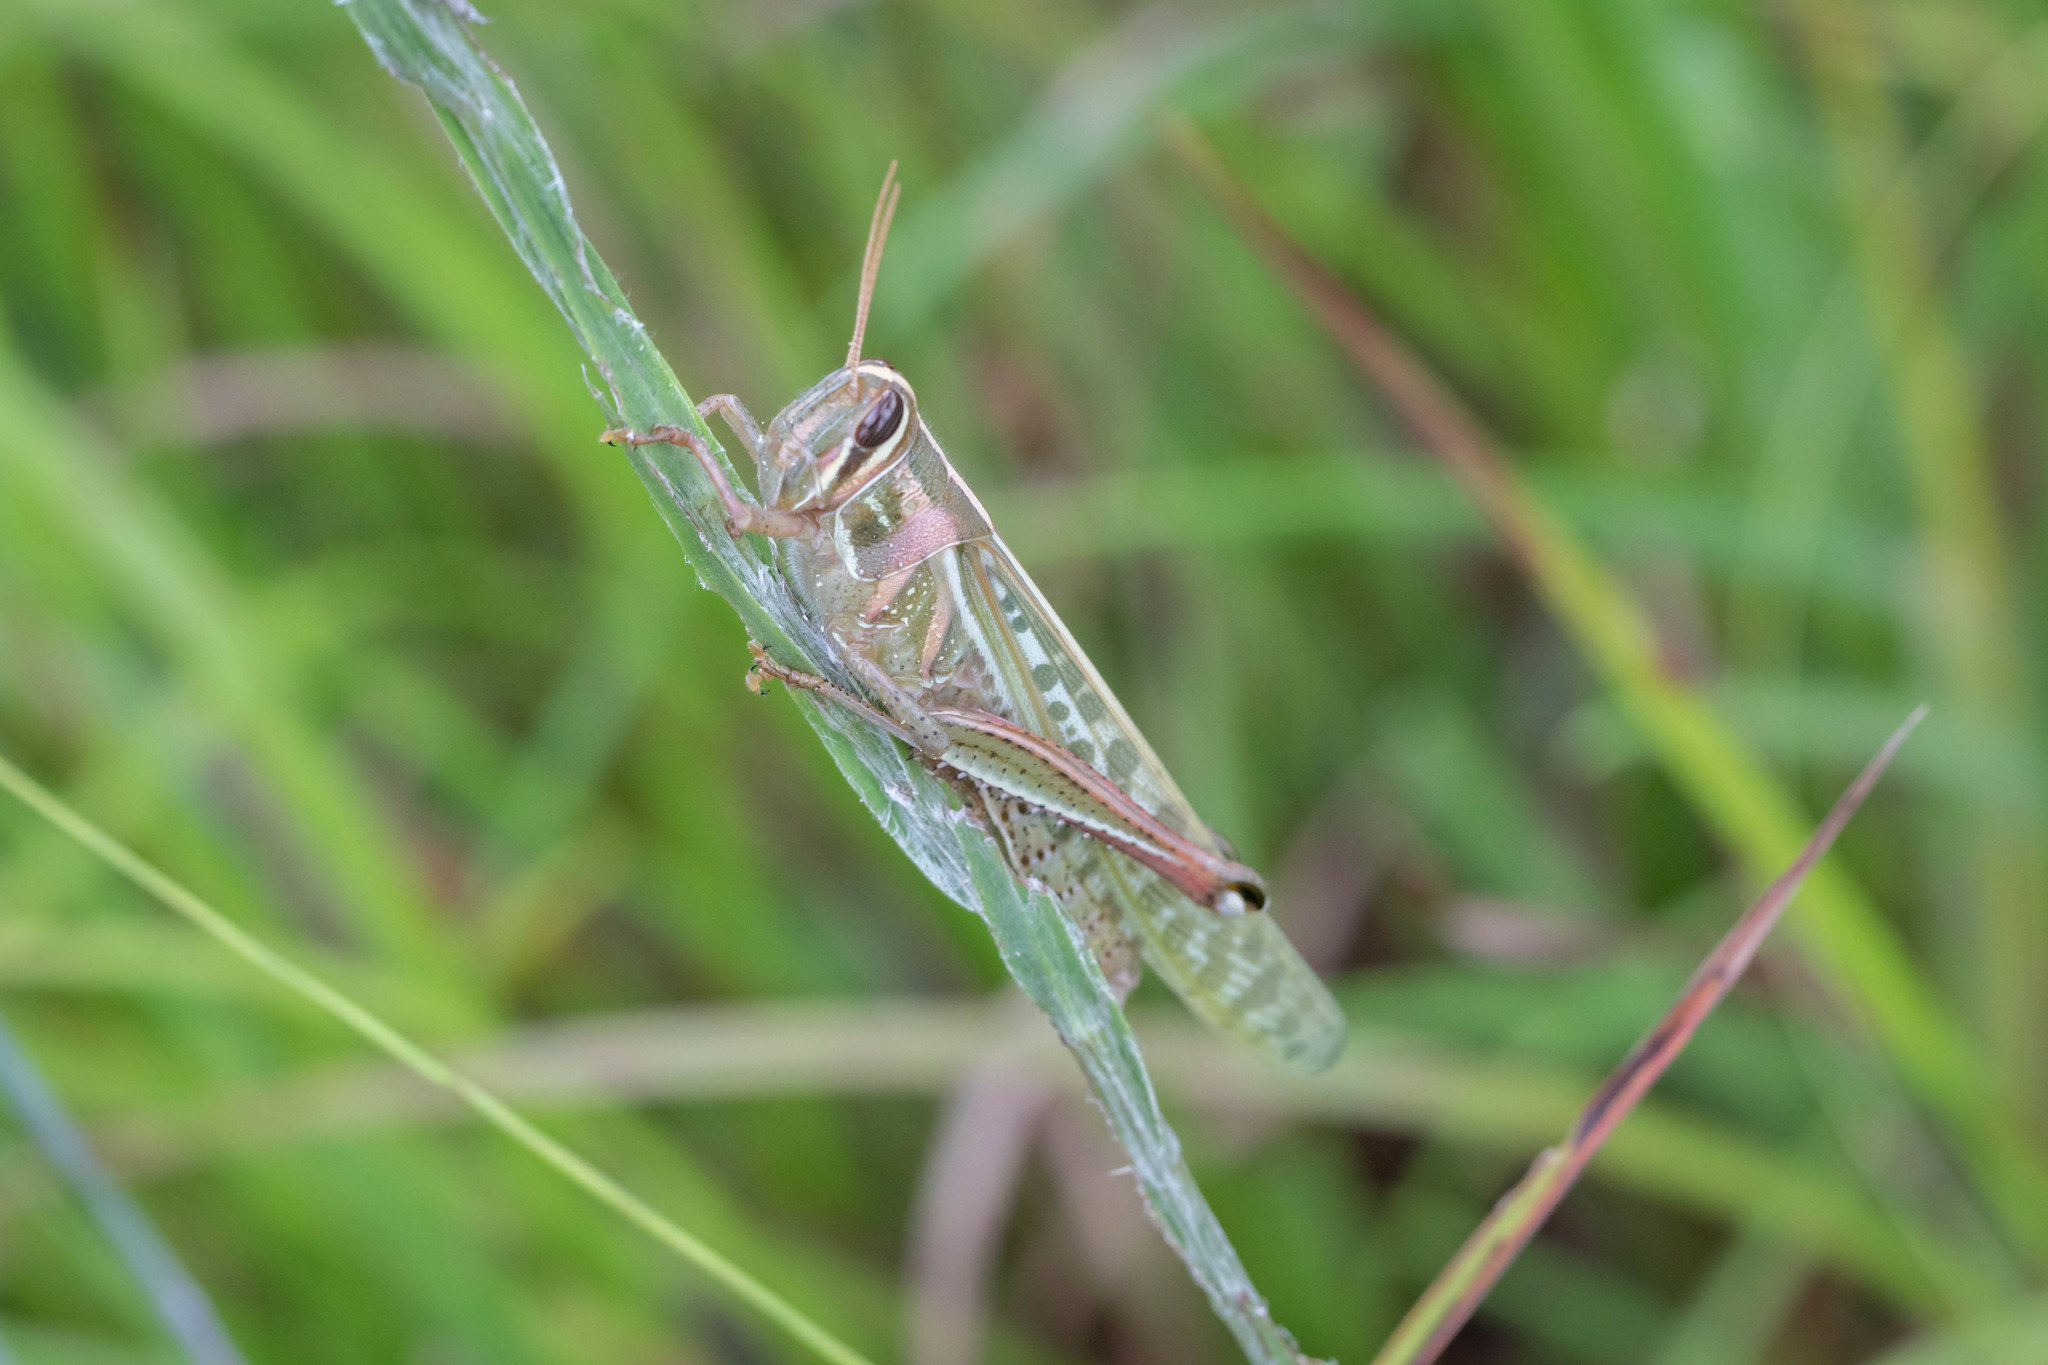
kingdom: Animalia
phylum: Arthropoda
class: Insecta
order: Orthoptera
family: Acrididae
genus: Schistocerca
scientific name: Schistocerca americana
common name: American bird locust
